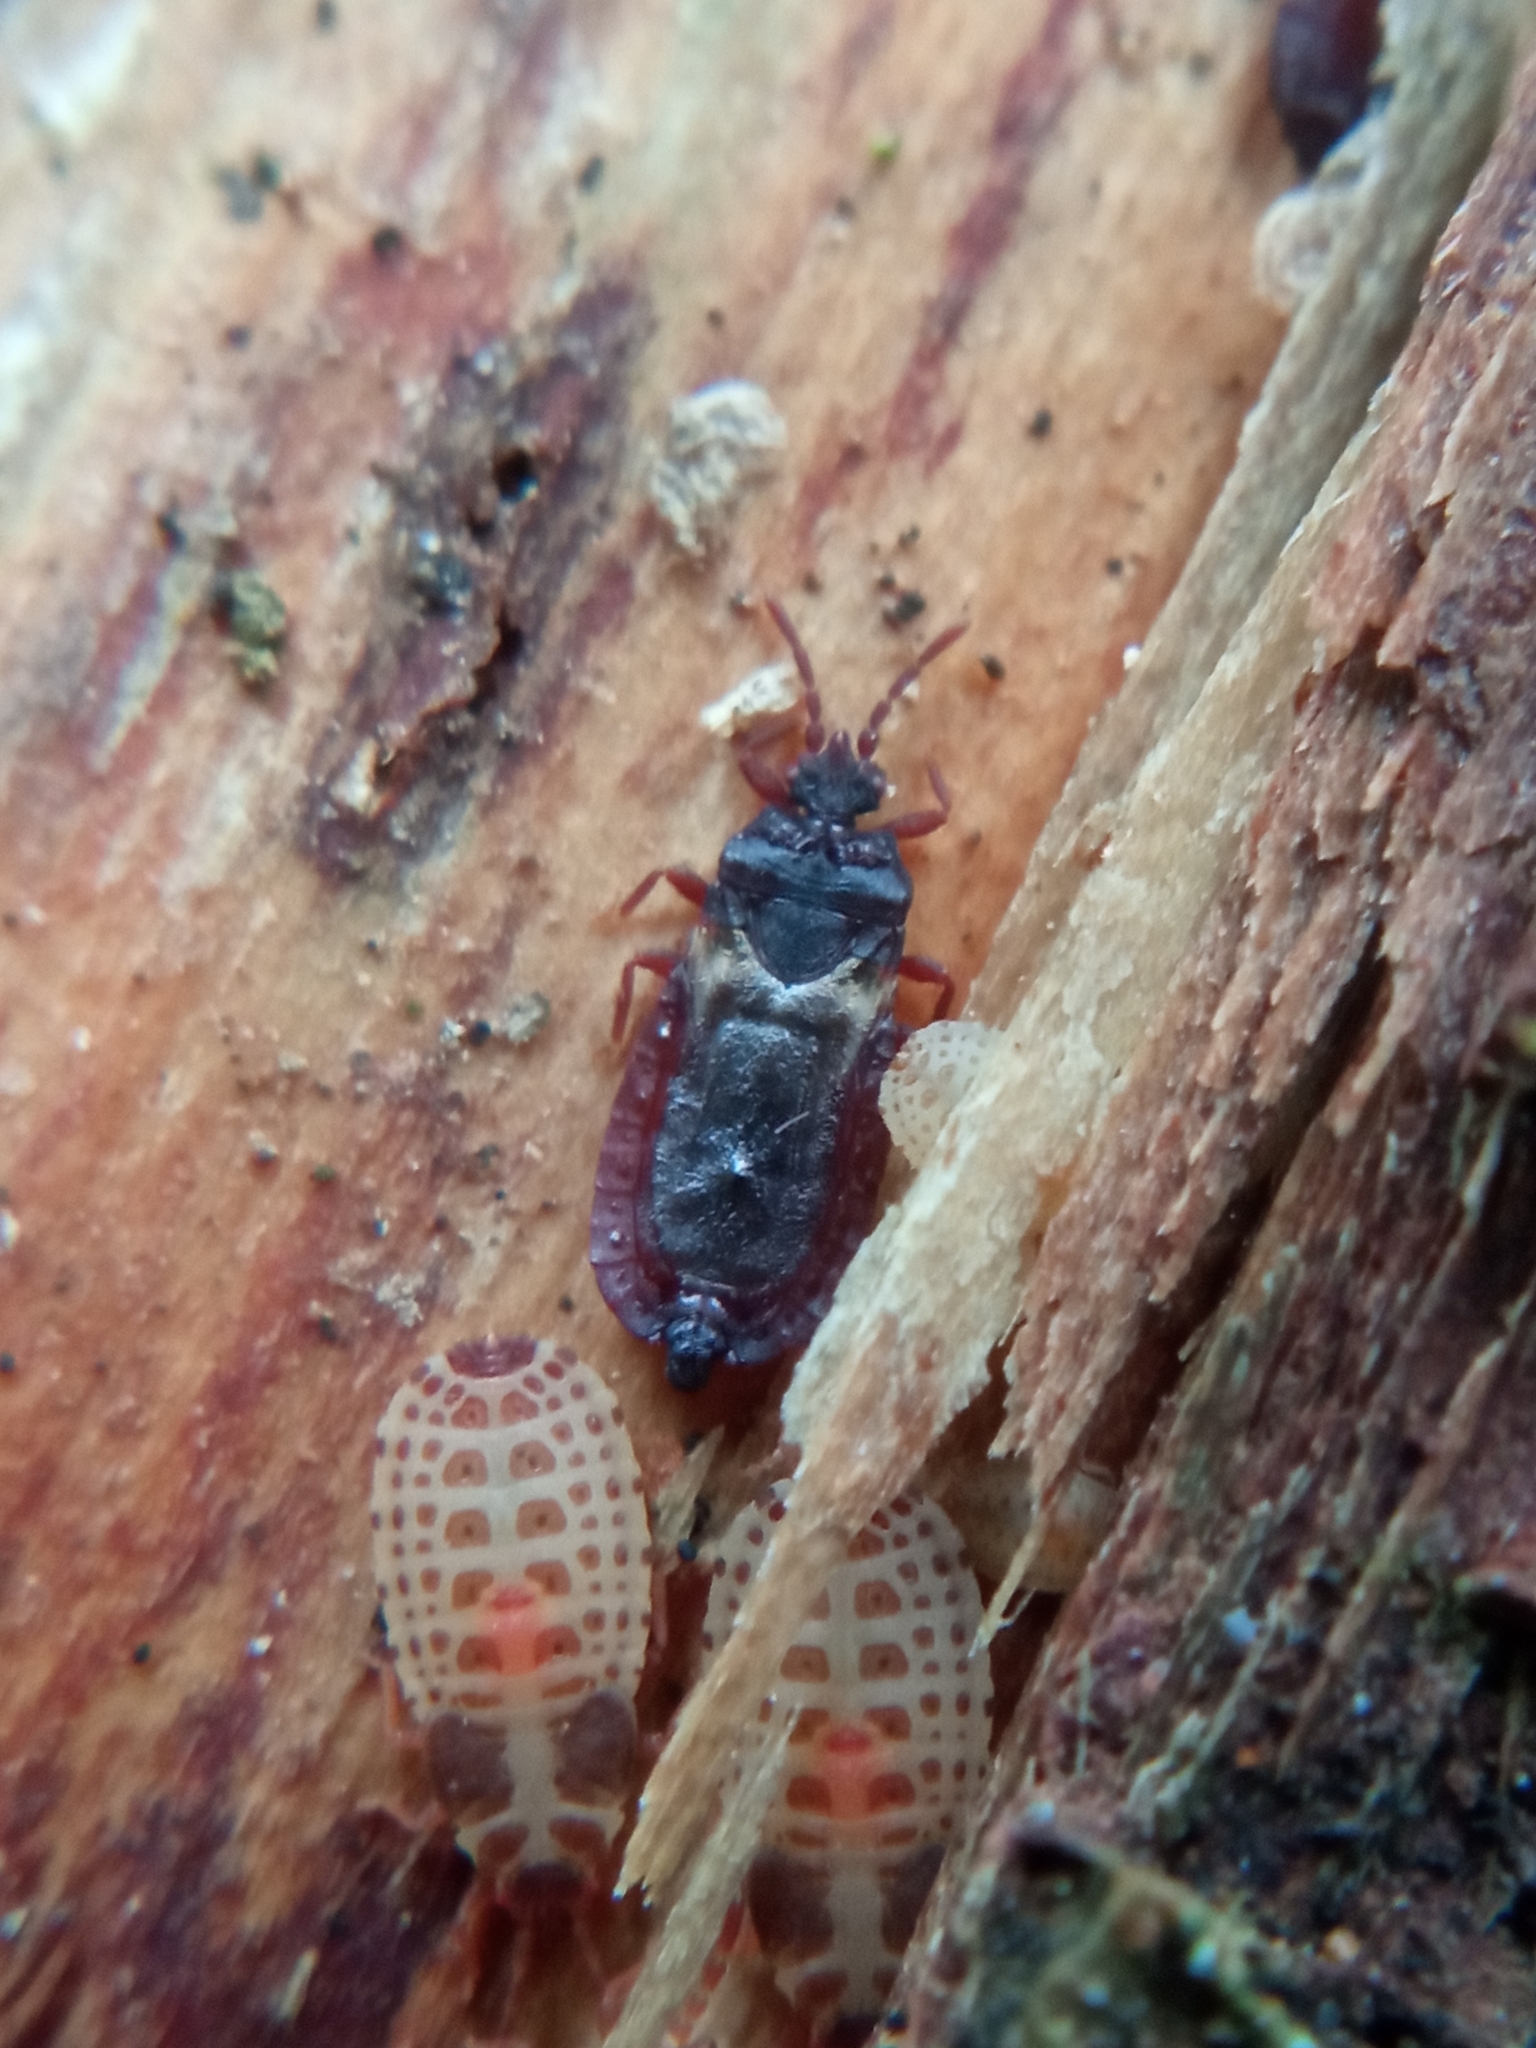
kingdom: Animalia
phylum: Arthropoda
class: Insecta
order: Hemiptera
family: Aradidae
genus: Aneurus
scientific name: Aneurus laevis
